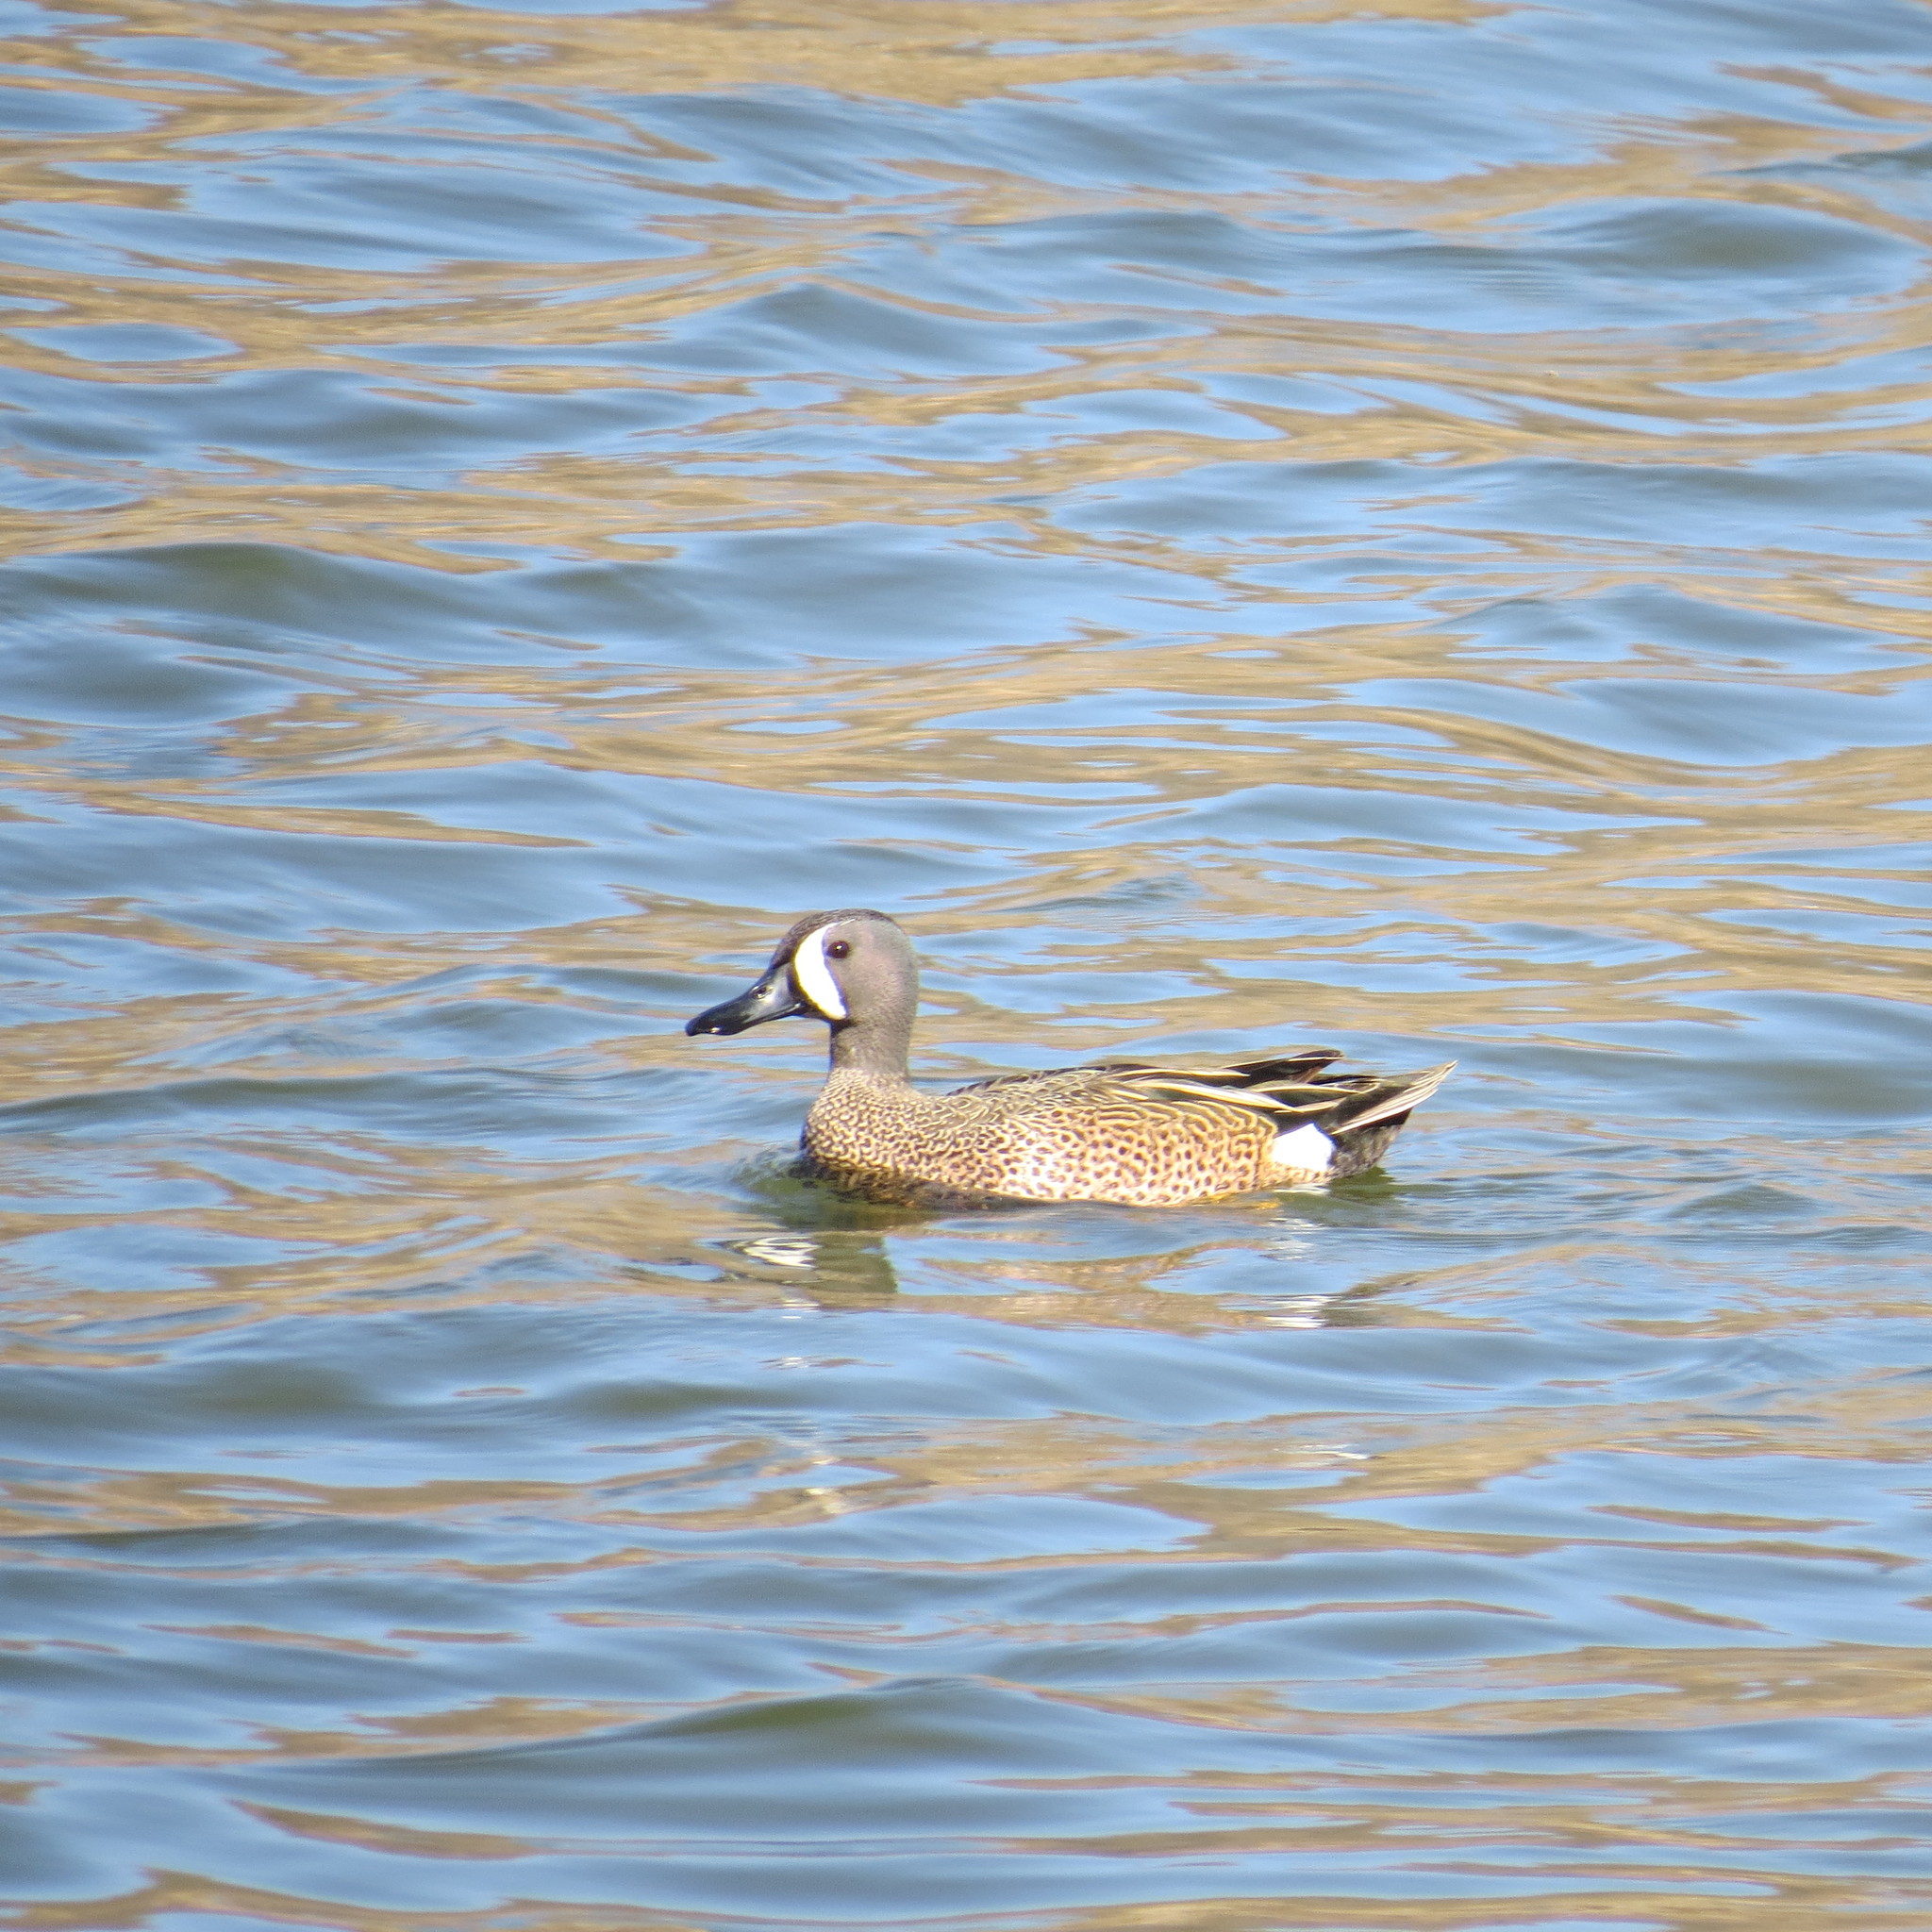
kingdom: Animalia
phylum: Chordata
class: Aves
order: Anseriformes
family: Anatidae
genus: Spatula
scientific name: Spatula discors
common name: Blue-winged teal
